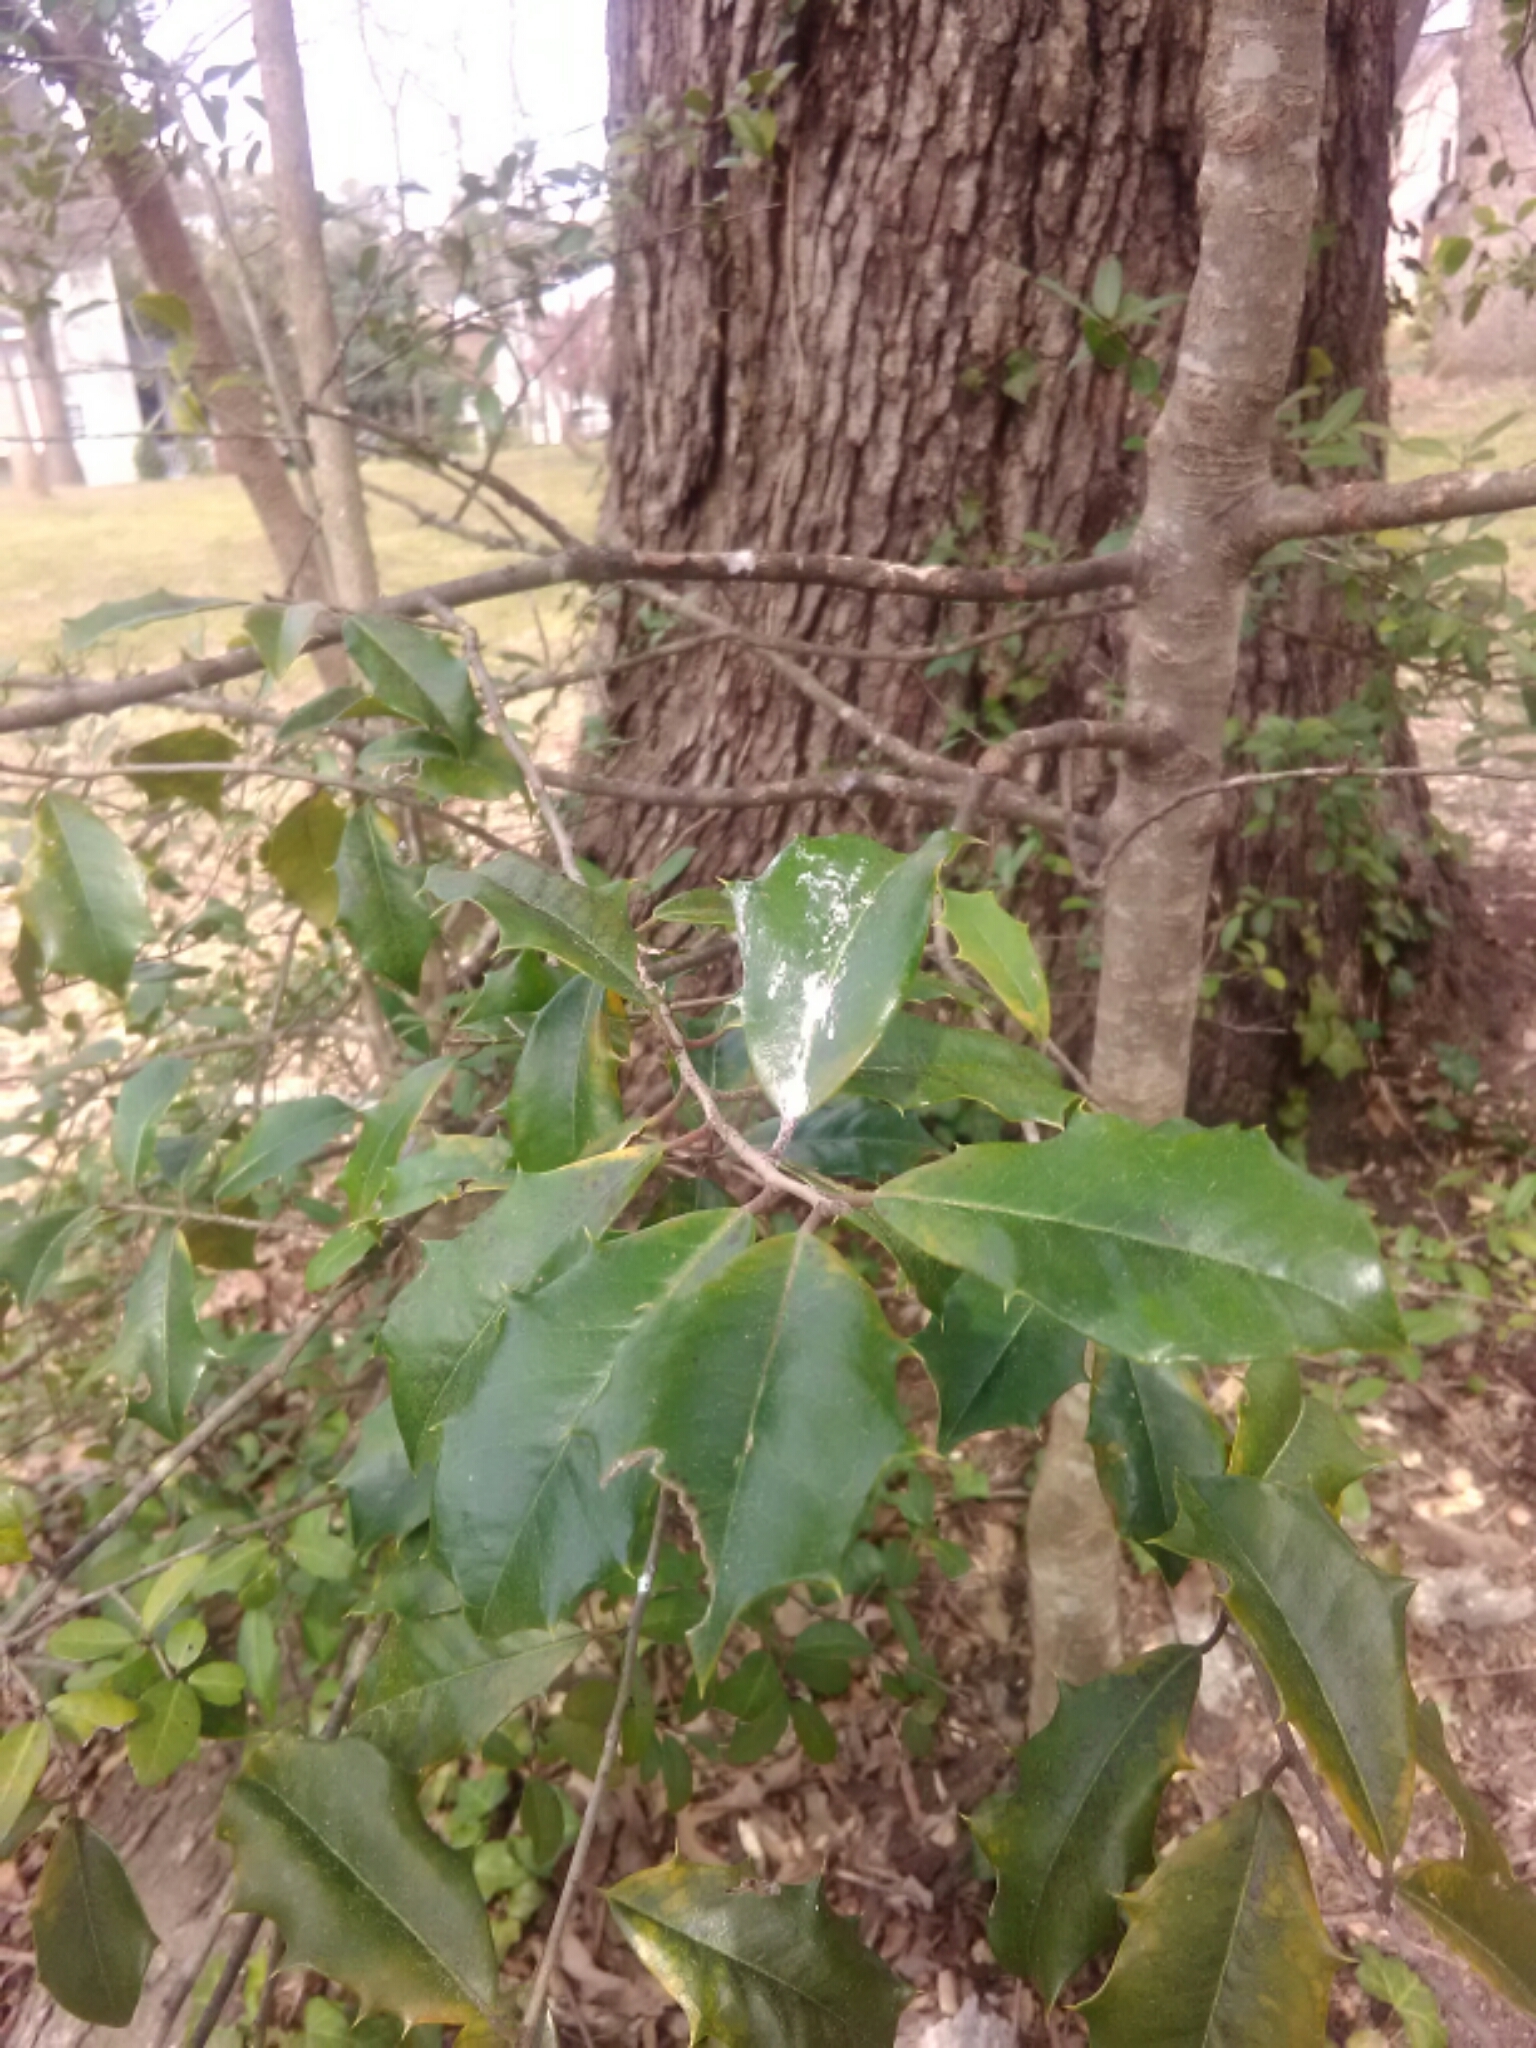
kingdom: Plantae
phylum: Tracheophyta
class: Magnoliopsida
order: Aquifoliales
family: Aquifoliaceae
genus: Ilex
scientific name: Ilex opaca
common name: American holly
